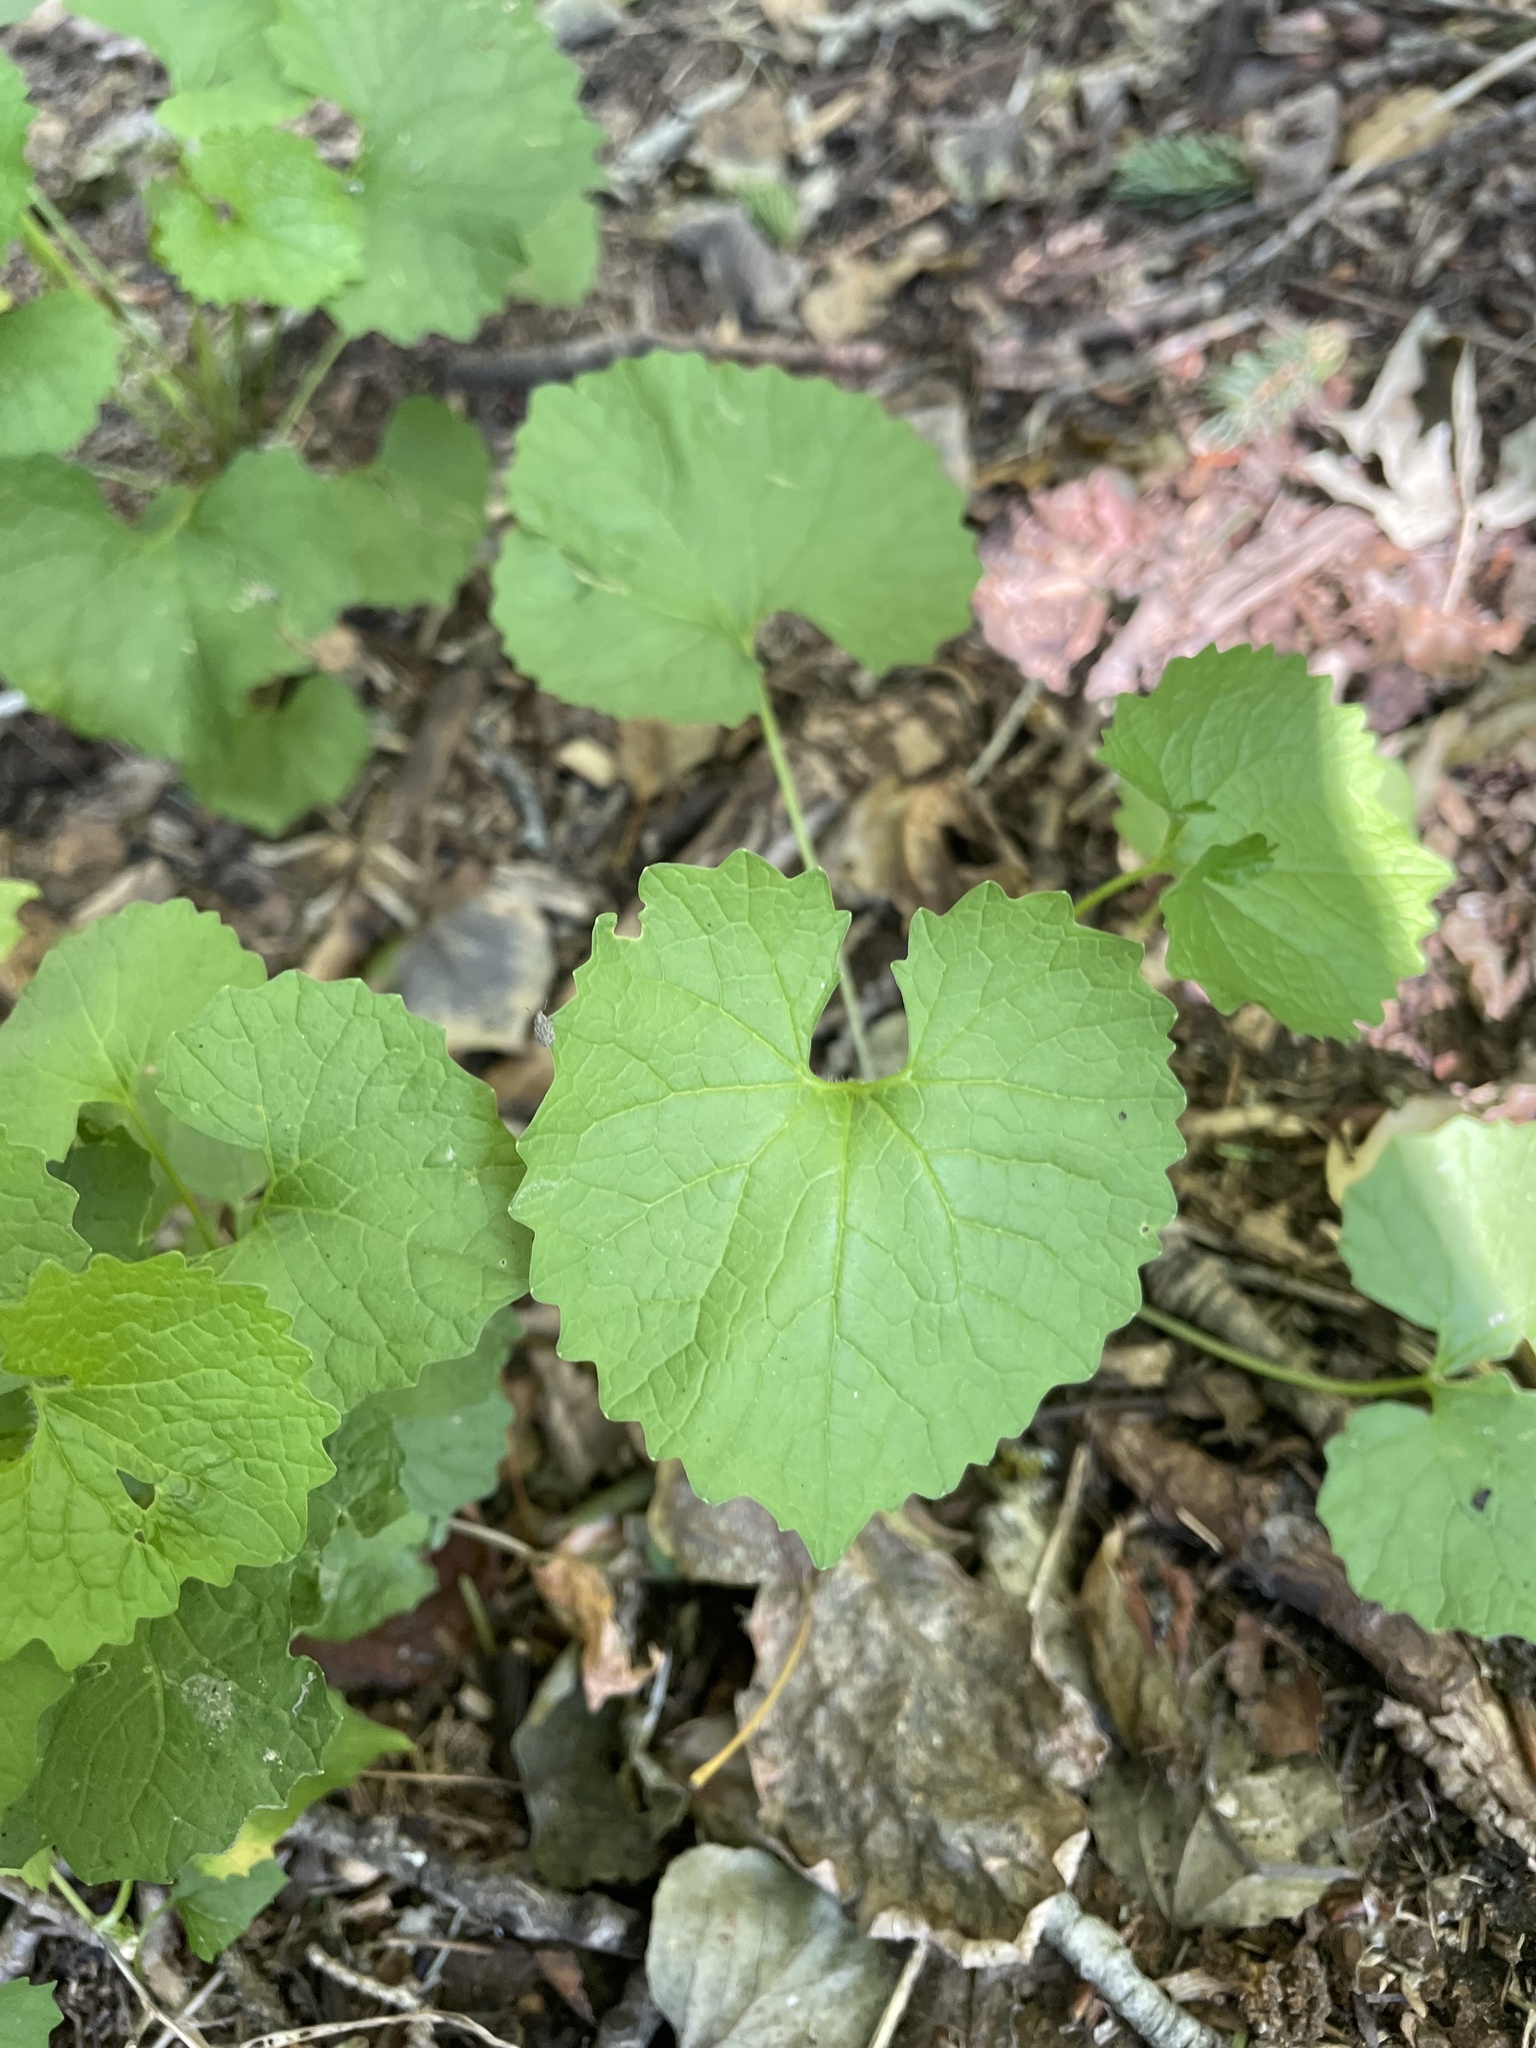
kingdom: Plantae
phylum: Tracheophyta
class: Magnoliopsida
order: Brassicales
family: Brassicaceae
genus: Alliaria
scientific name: Alliaria petiolata
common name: Garlic mustard
